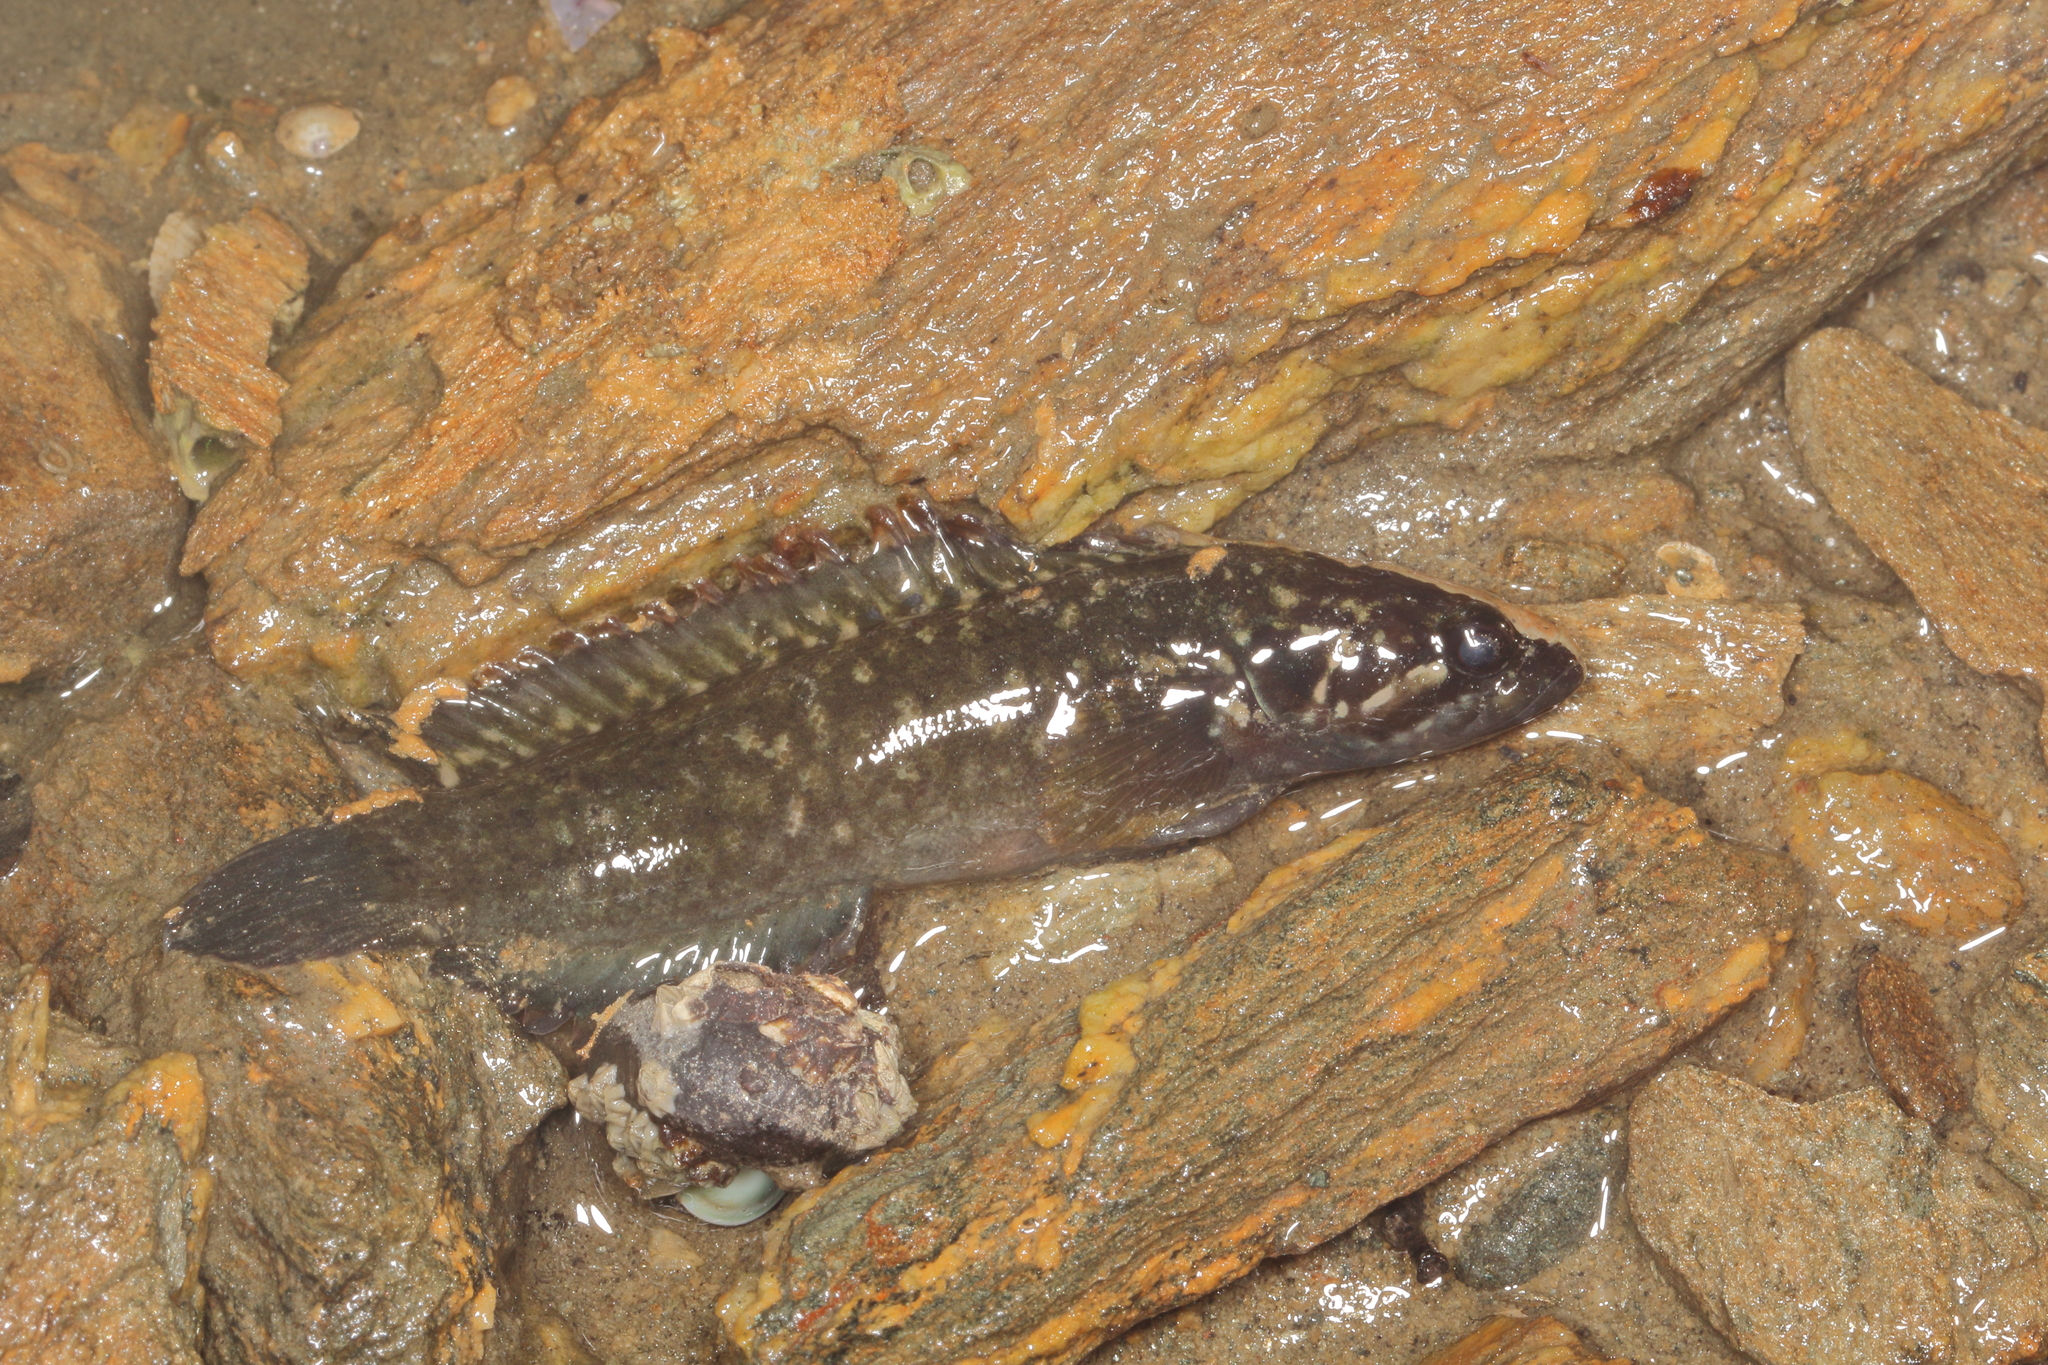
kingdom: Animalia
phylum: Chordata
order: Perciformes
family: Plesiopidae
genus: Acanthoclinus
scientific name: Acanthoclinus fuscus
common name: Olive rockfish
